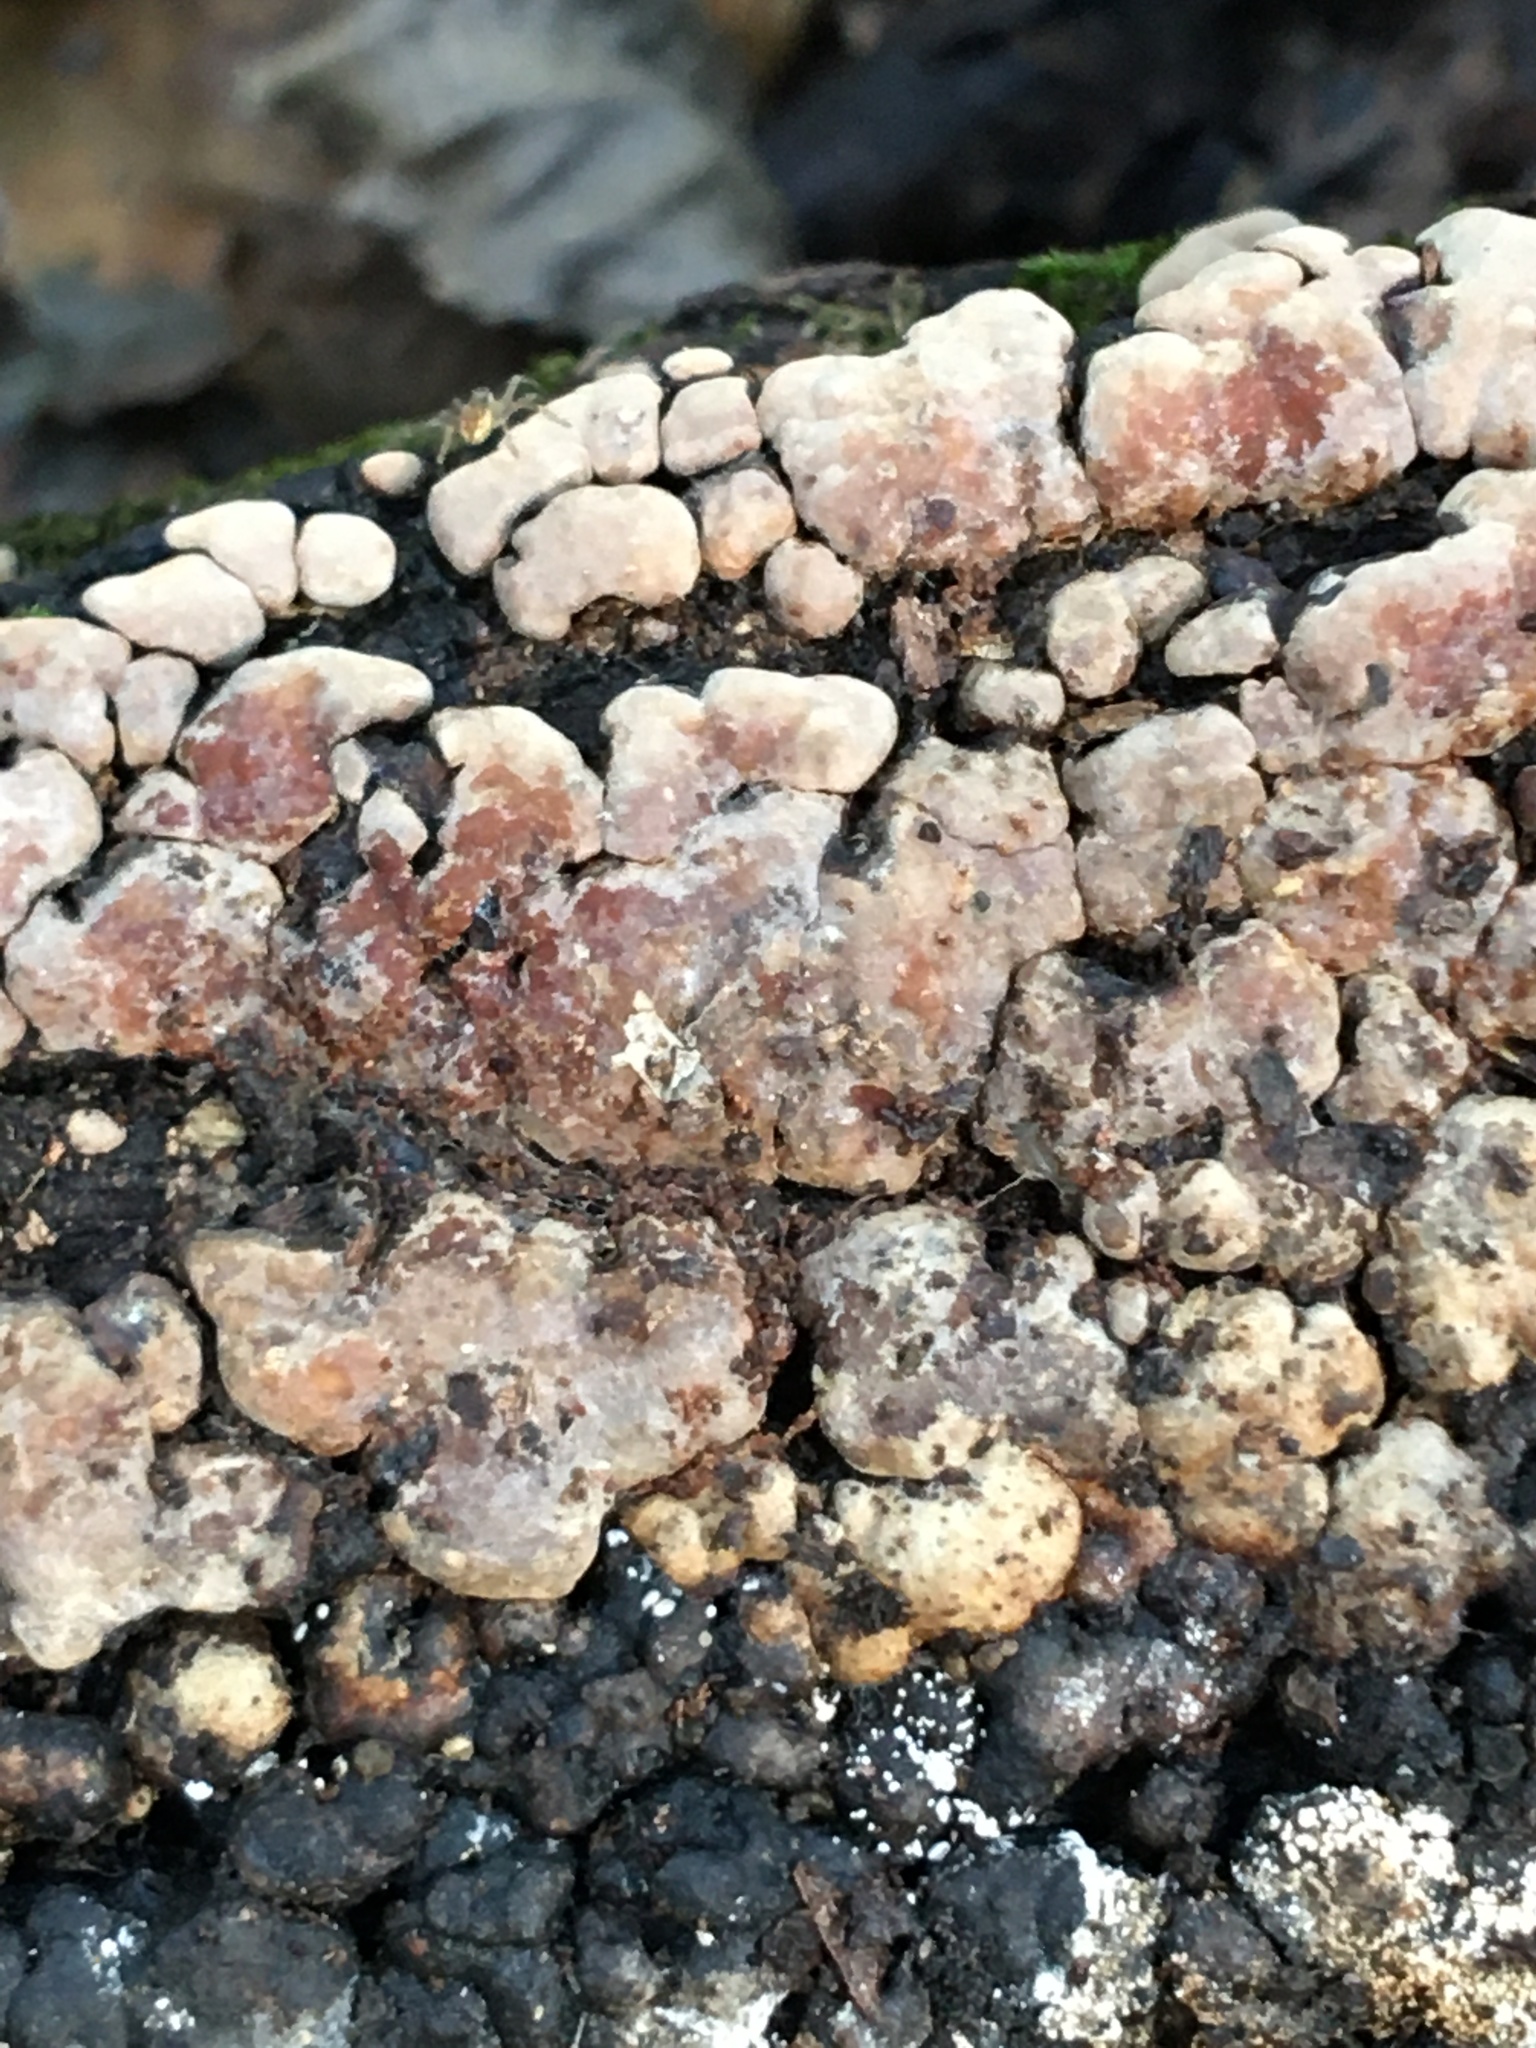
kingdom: Fungi
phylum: Basidiomycota
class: Agaricomycetes
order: Russulales
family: Stereaceae
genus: Xylobolus
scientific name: Xylobolus frustulatus
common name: Ceramic parchment
